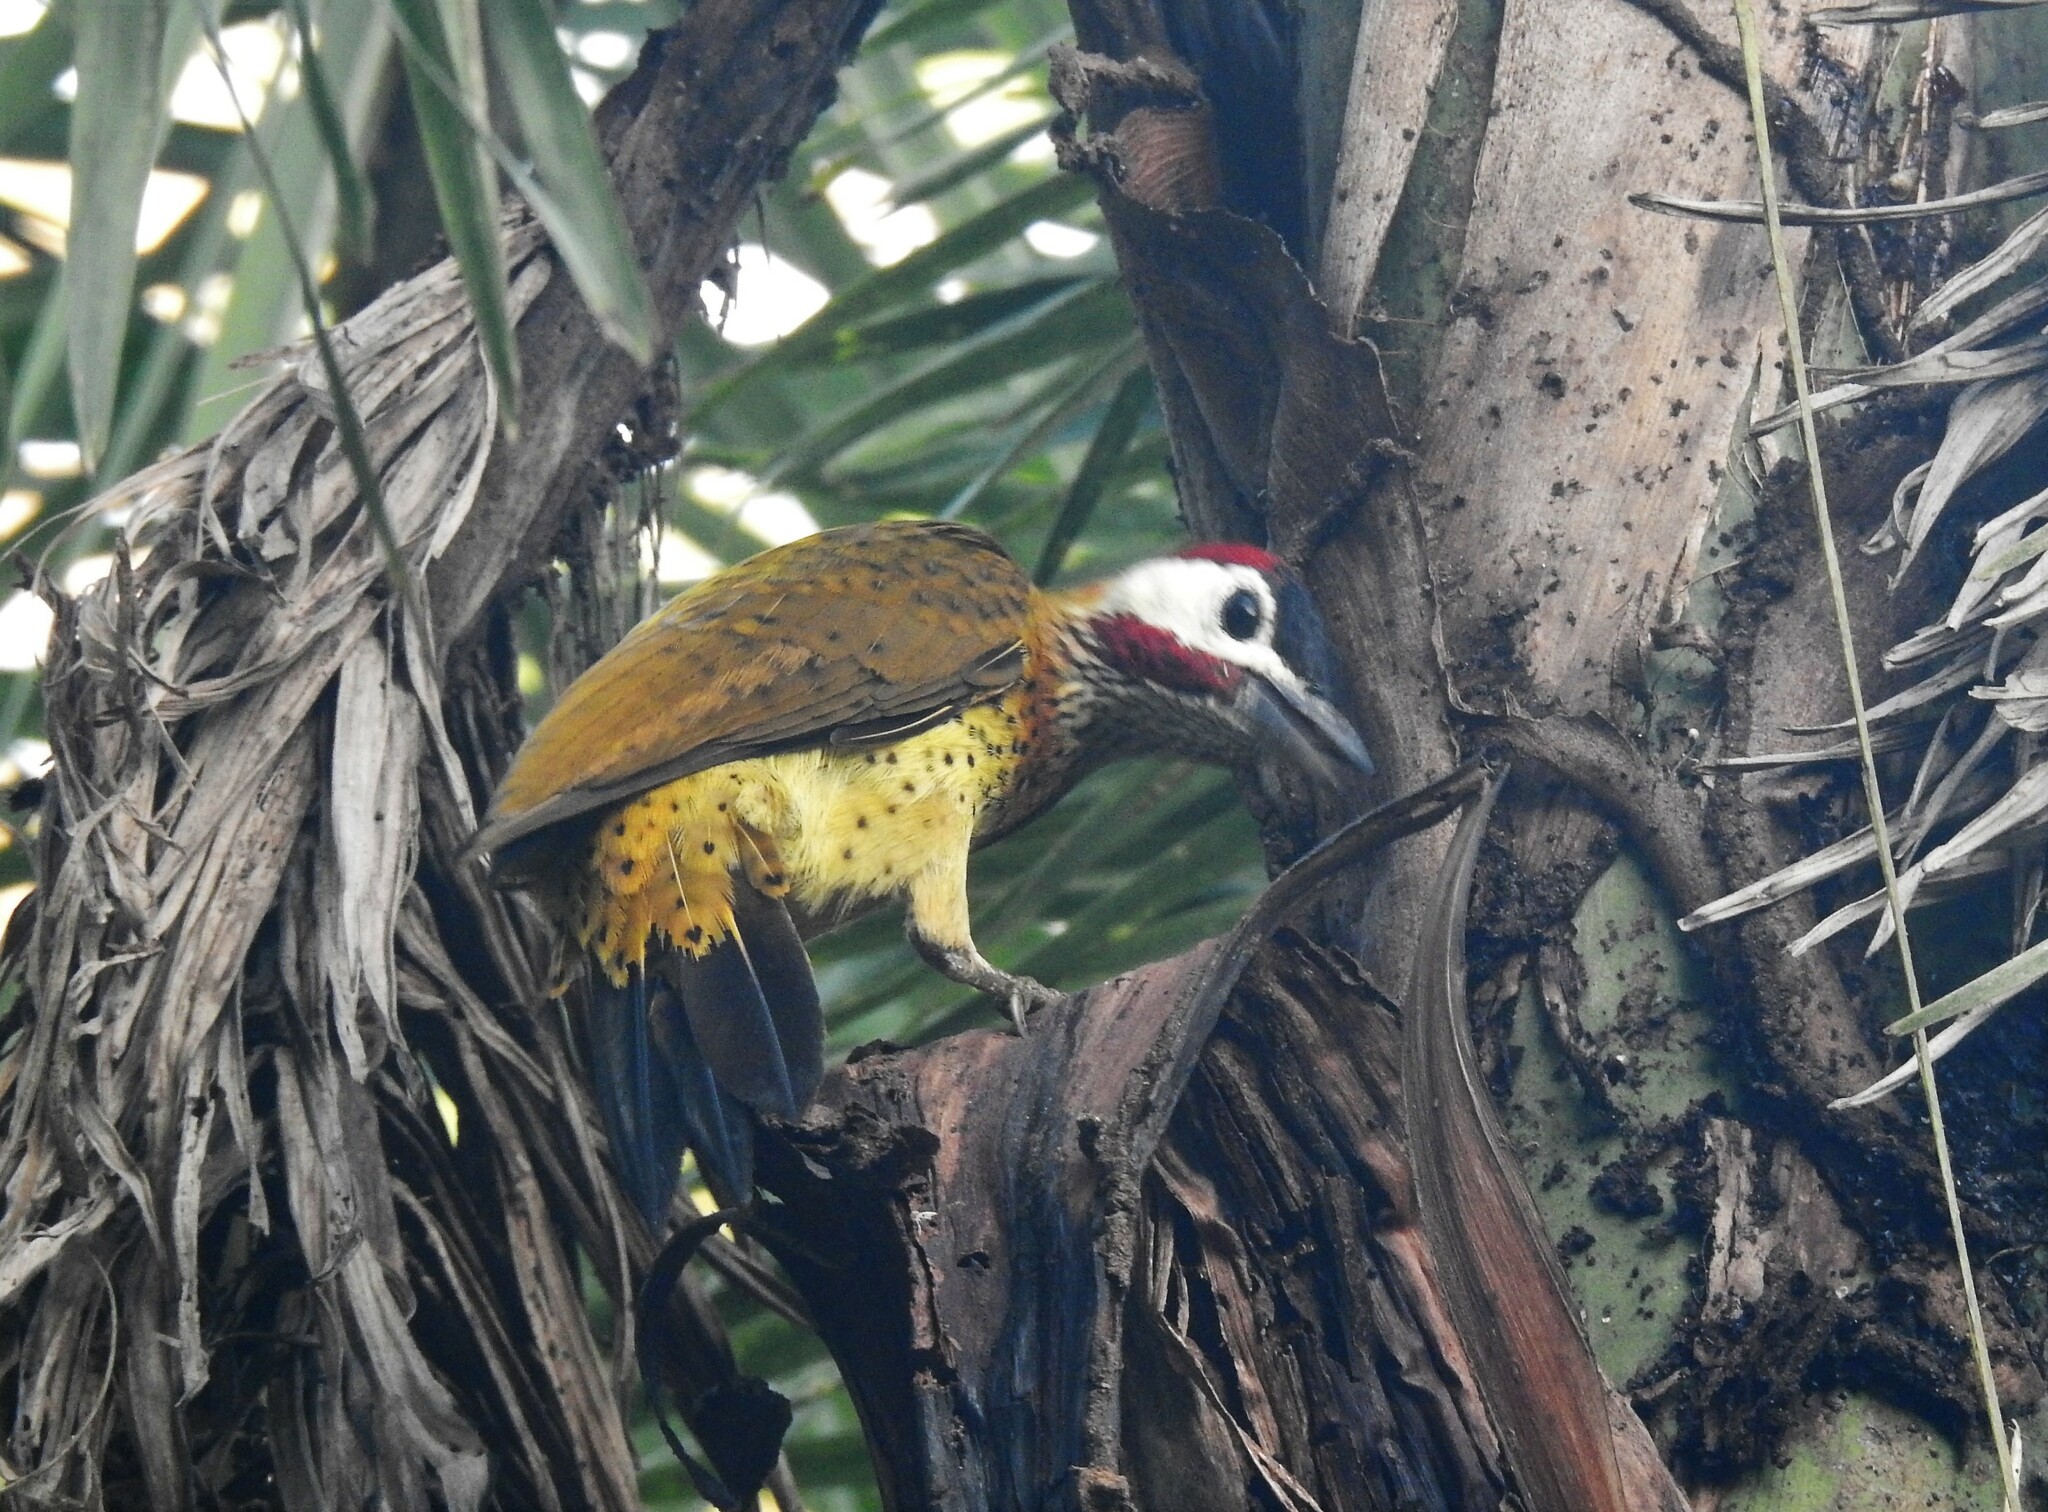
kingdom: Animalia
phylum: Chordata
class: Aves
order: Piciformes
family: Picidae
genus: Colaptes
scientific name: Colaptes punctigula
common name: Spot-breasted woodpecker
